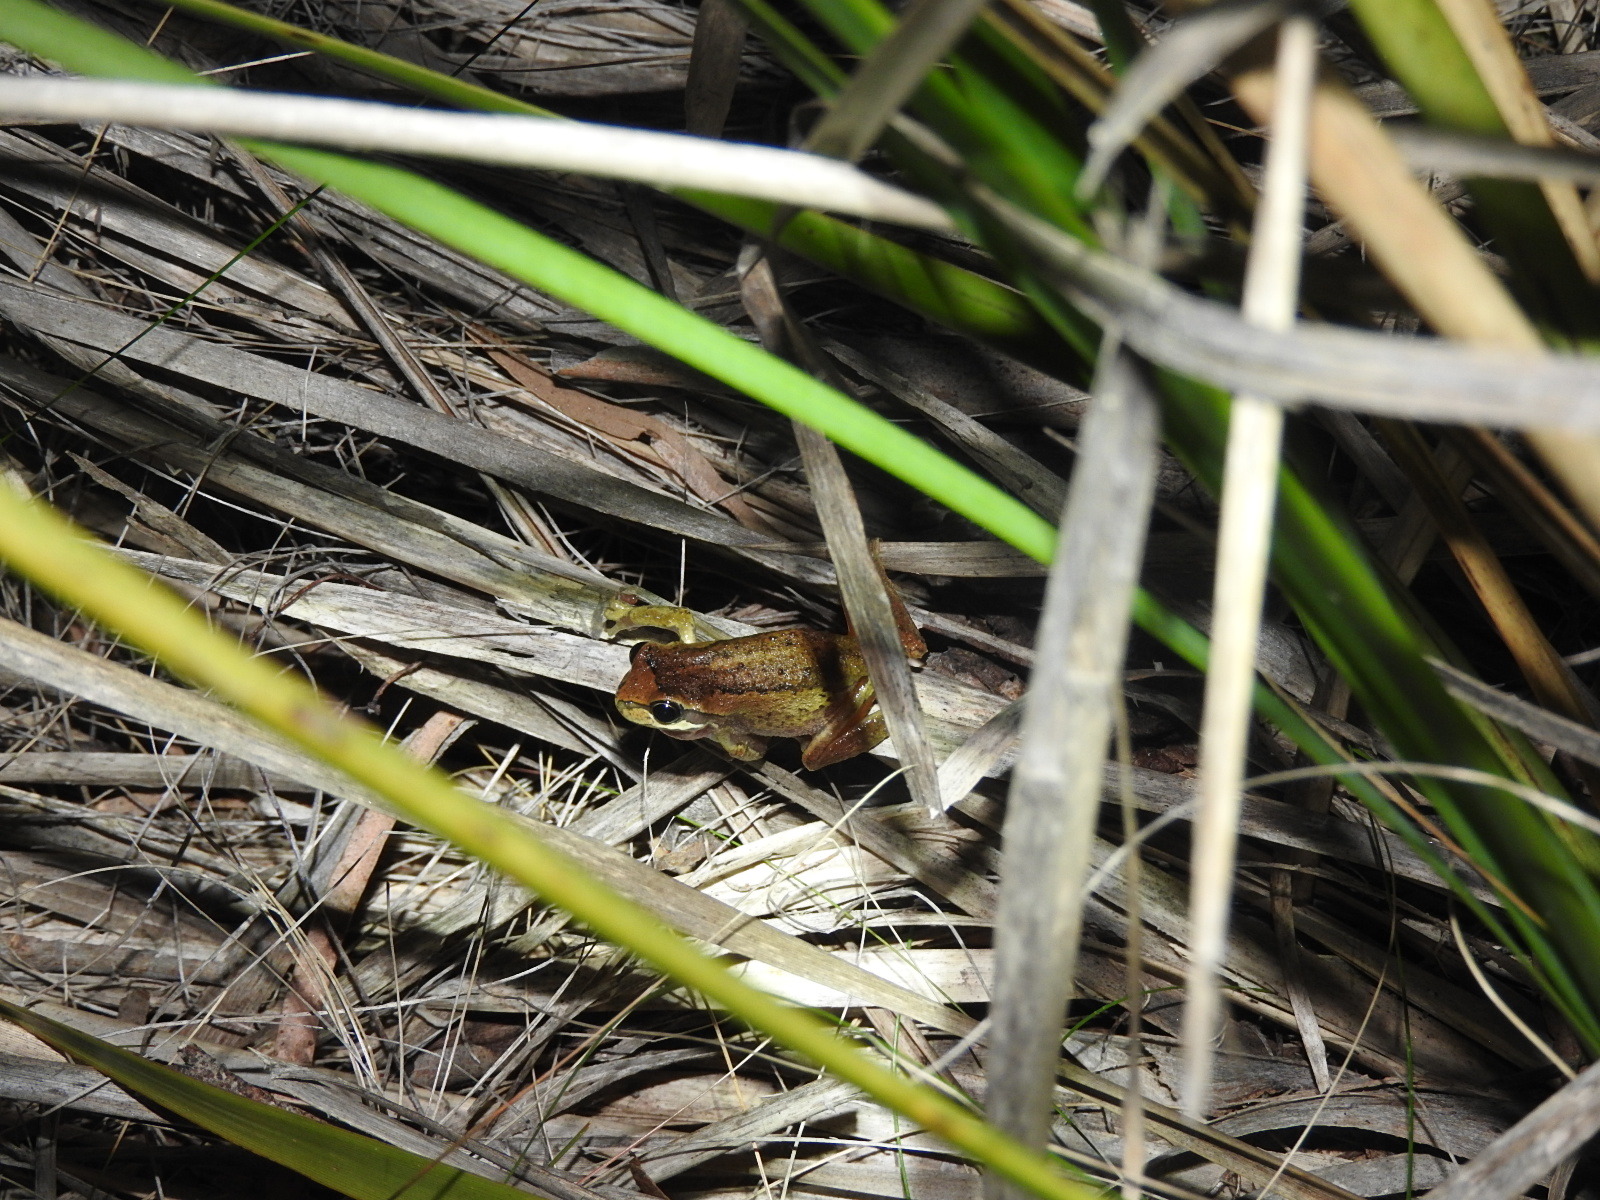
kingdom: Animalia
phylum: Chordata
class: Amphibia
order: Anura
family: Pelodryadidae
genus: Litoria
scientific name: Litoria ewingii
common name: Southern brown tree frog
